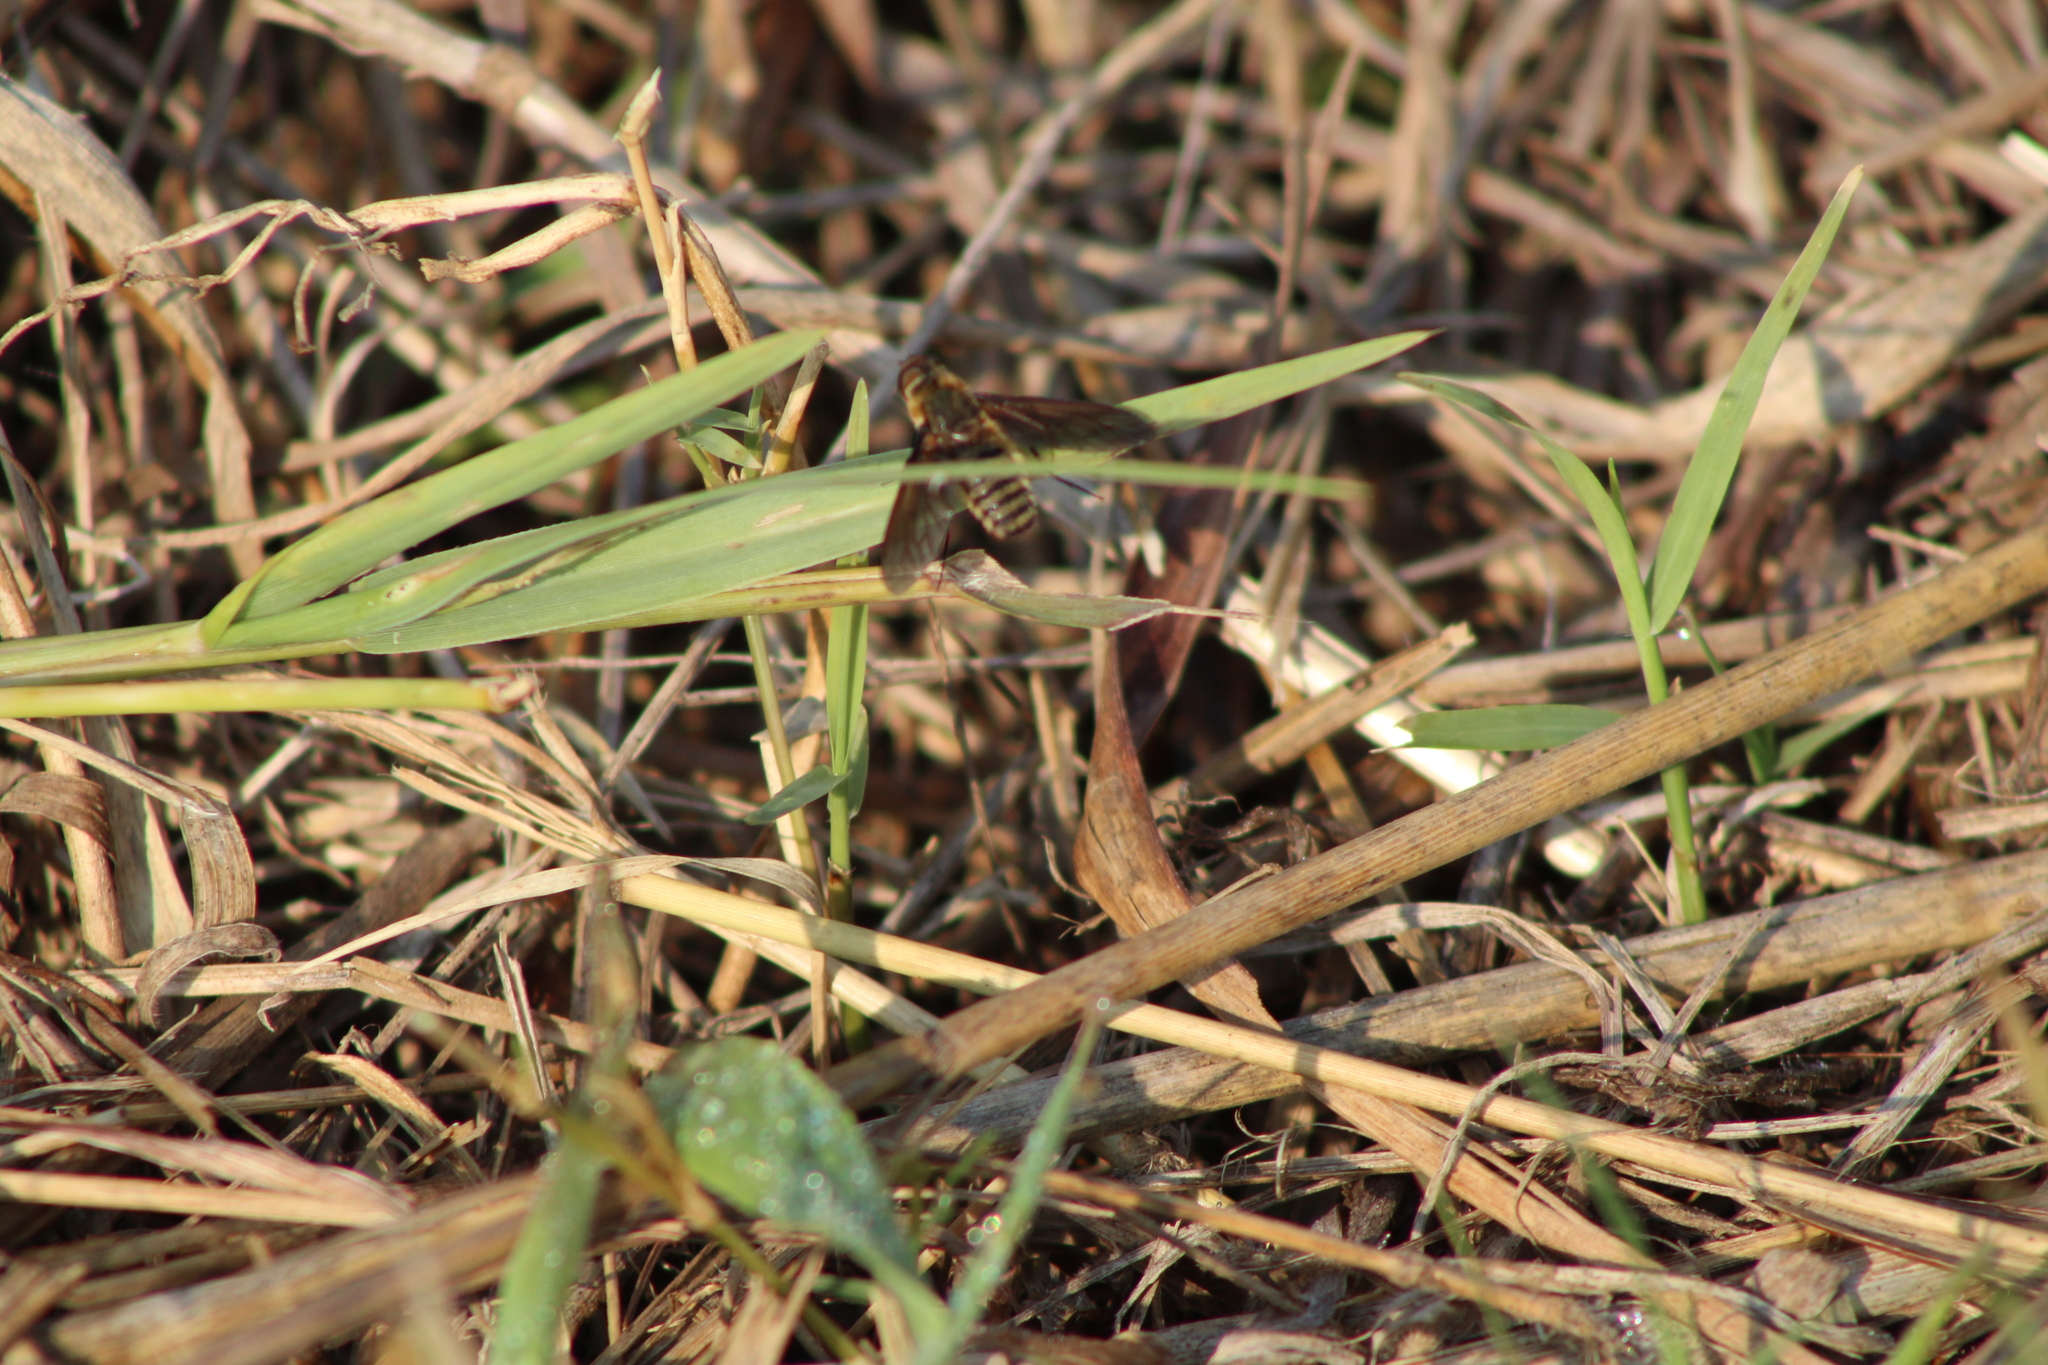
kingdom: Animalia
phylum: Arthropoda
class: Insecta
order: Diptera
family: Bombyliidae
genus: Poecilanthrax
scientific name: Poecilanthrax lucifer
